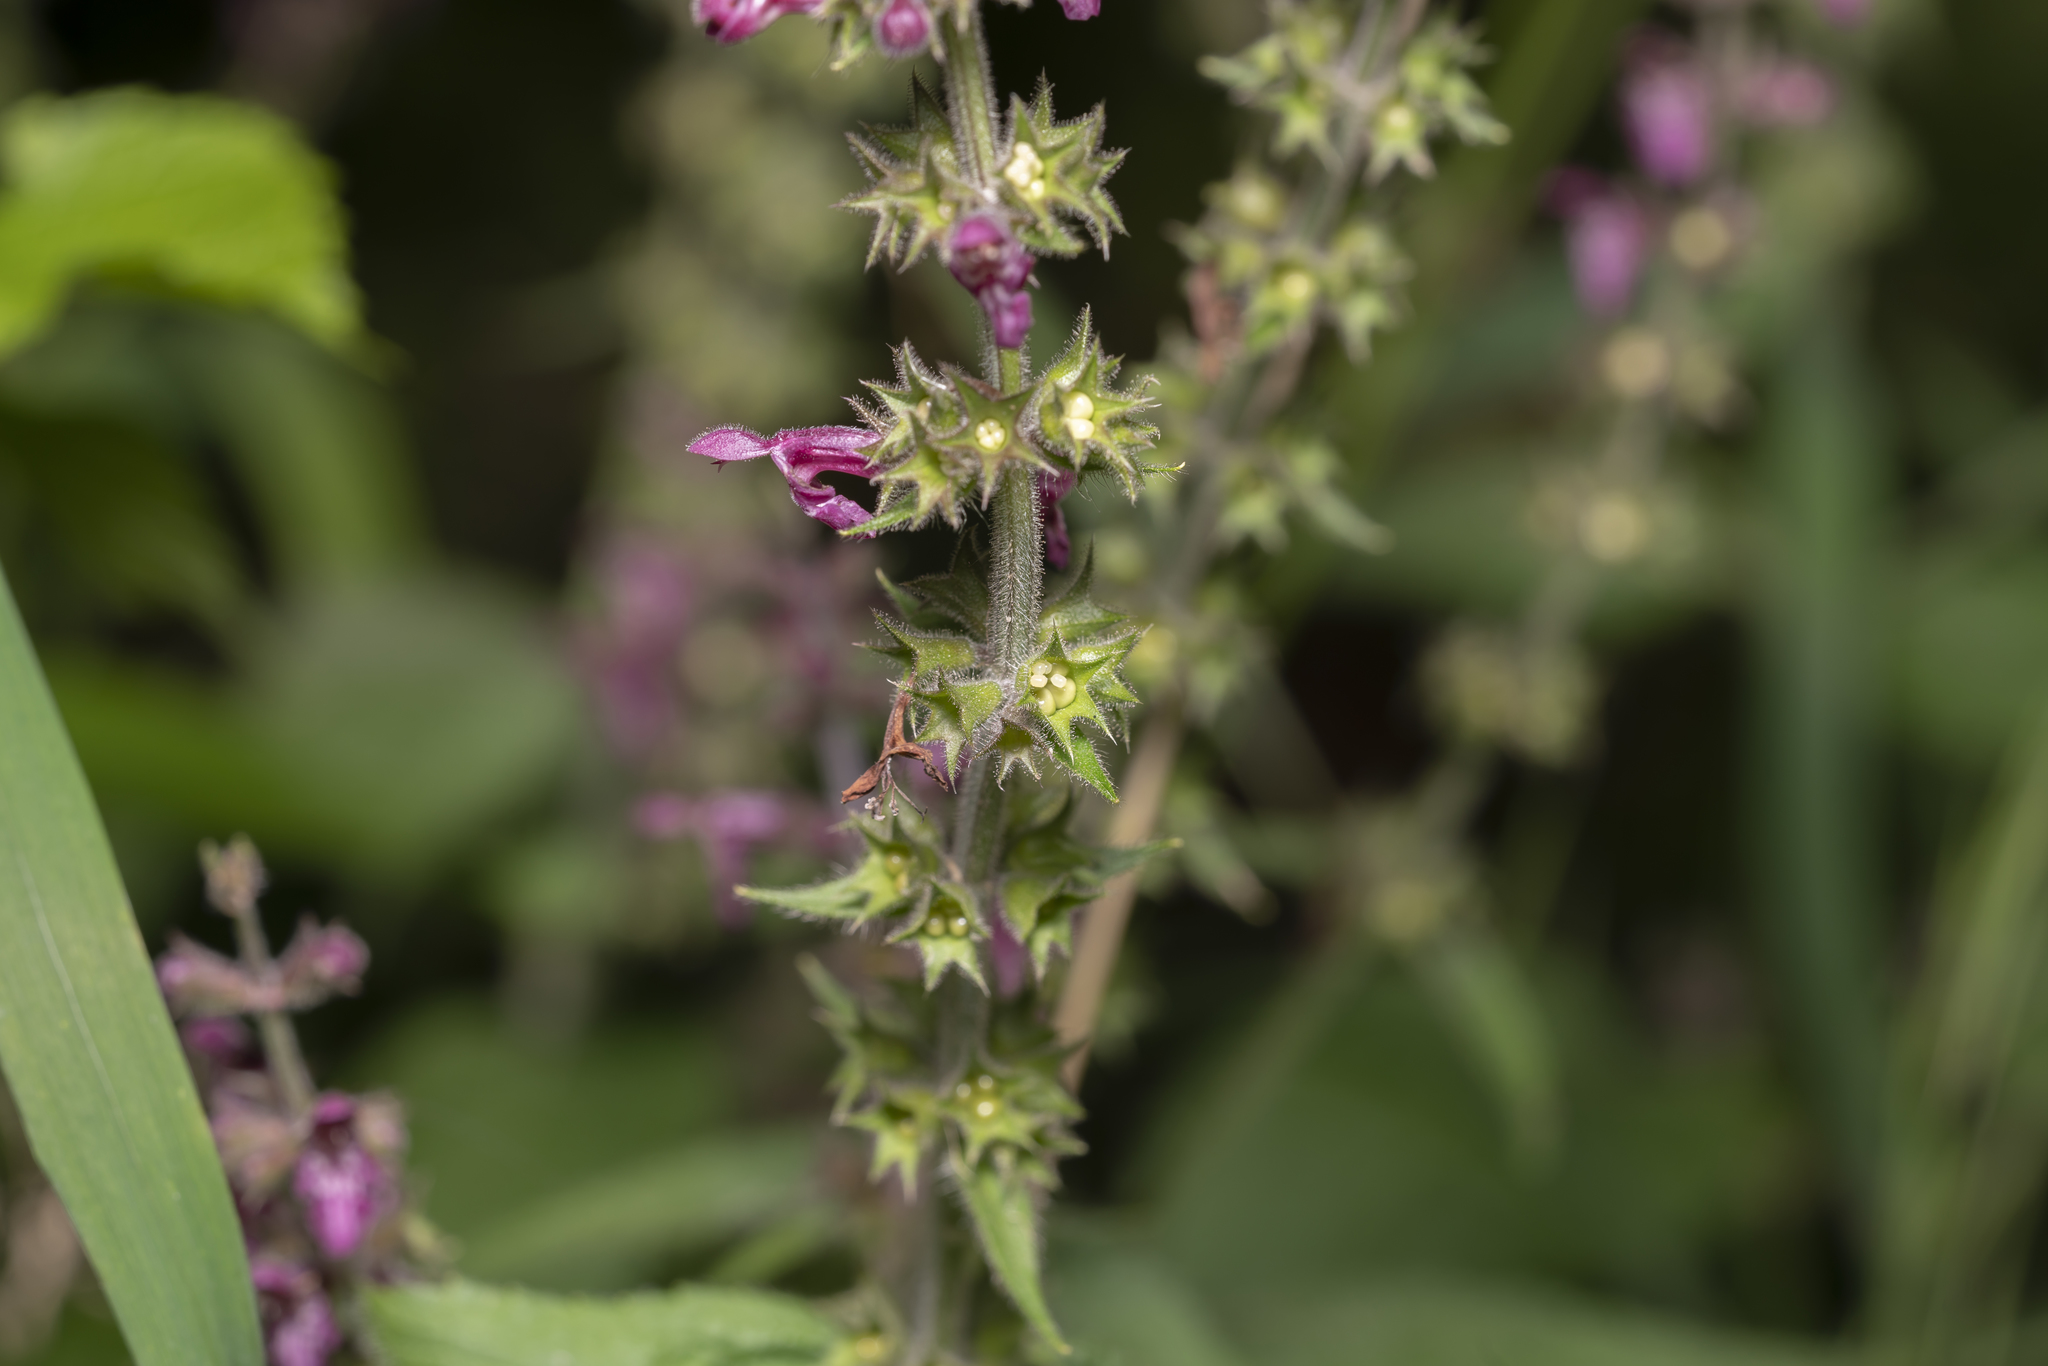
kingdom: Plantae
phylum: Tracheophyta
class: Magnoliopsida
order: Lamiales
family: Lamiaceae
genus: Stachys
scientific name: Stachys sylvatica
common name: Hedge woundwort
